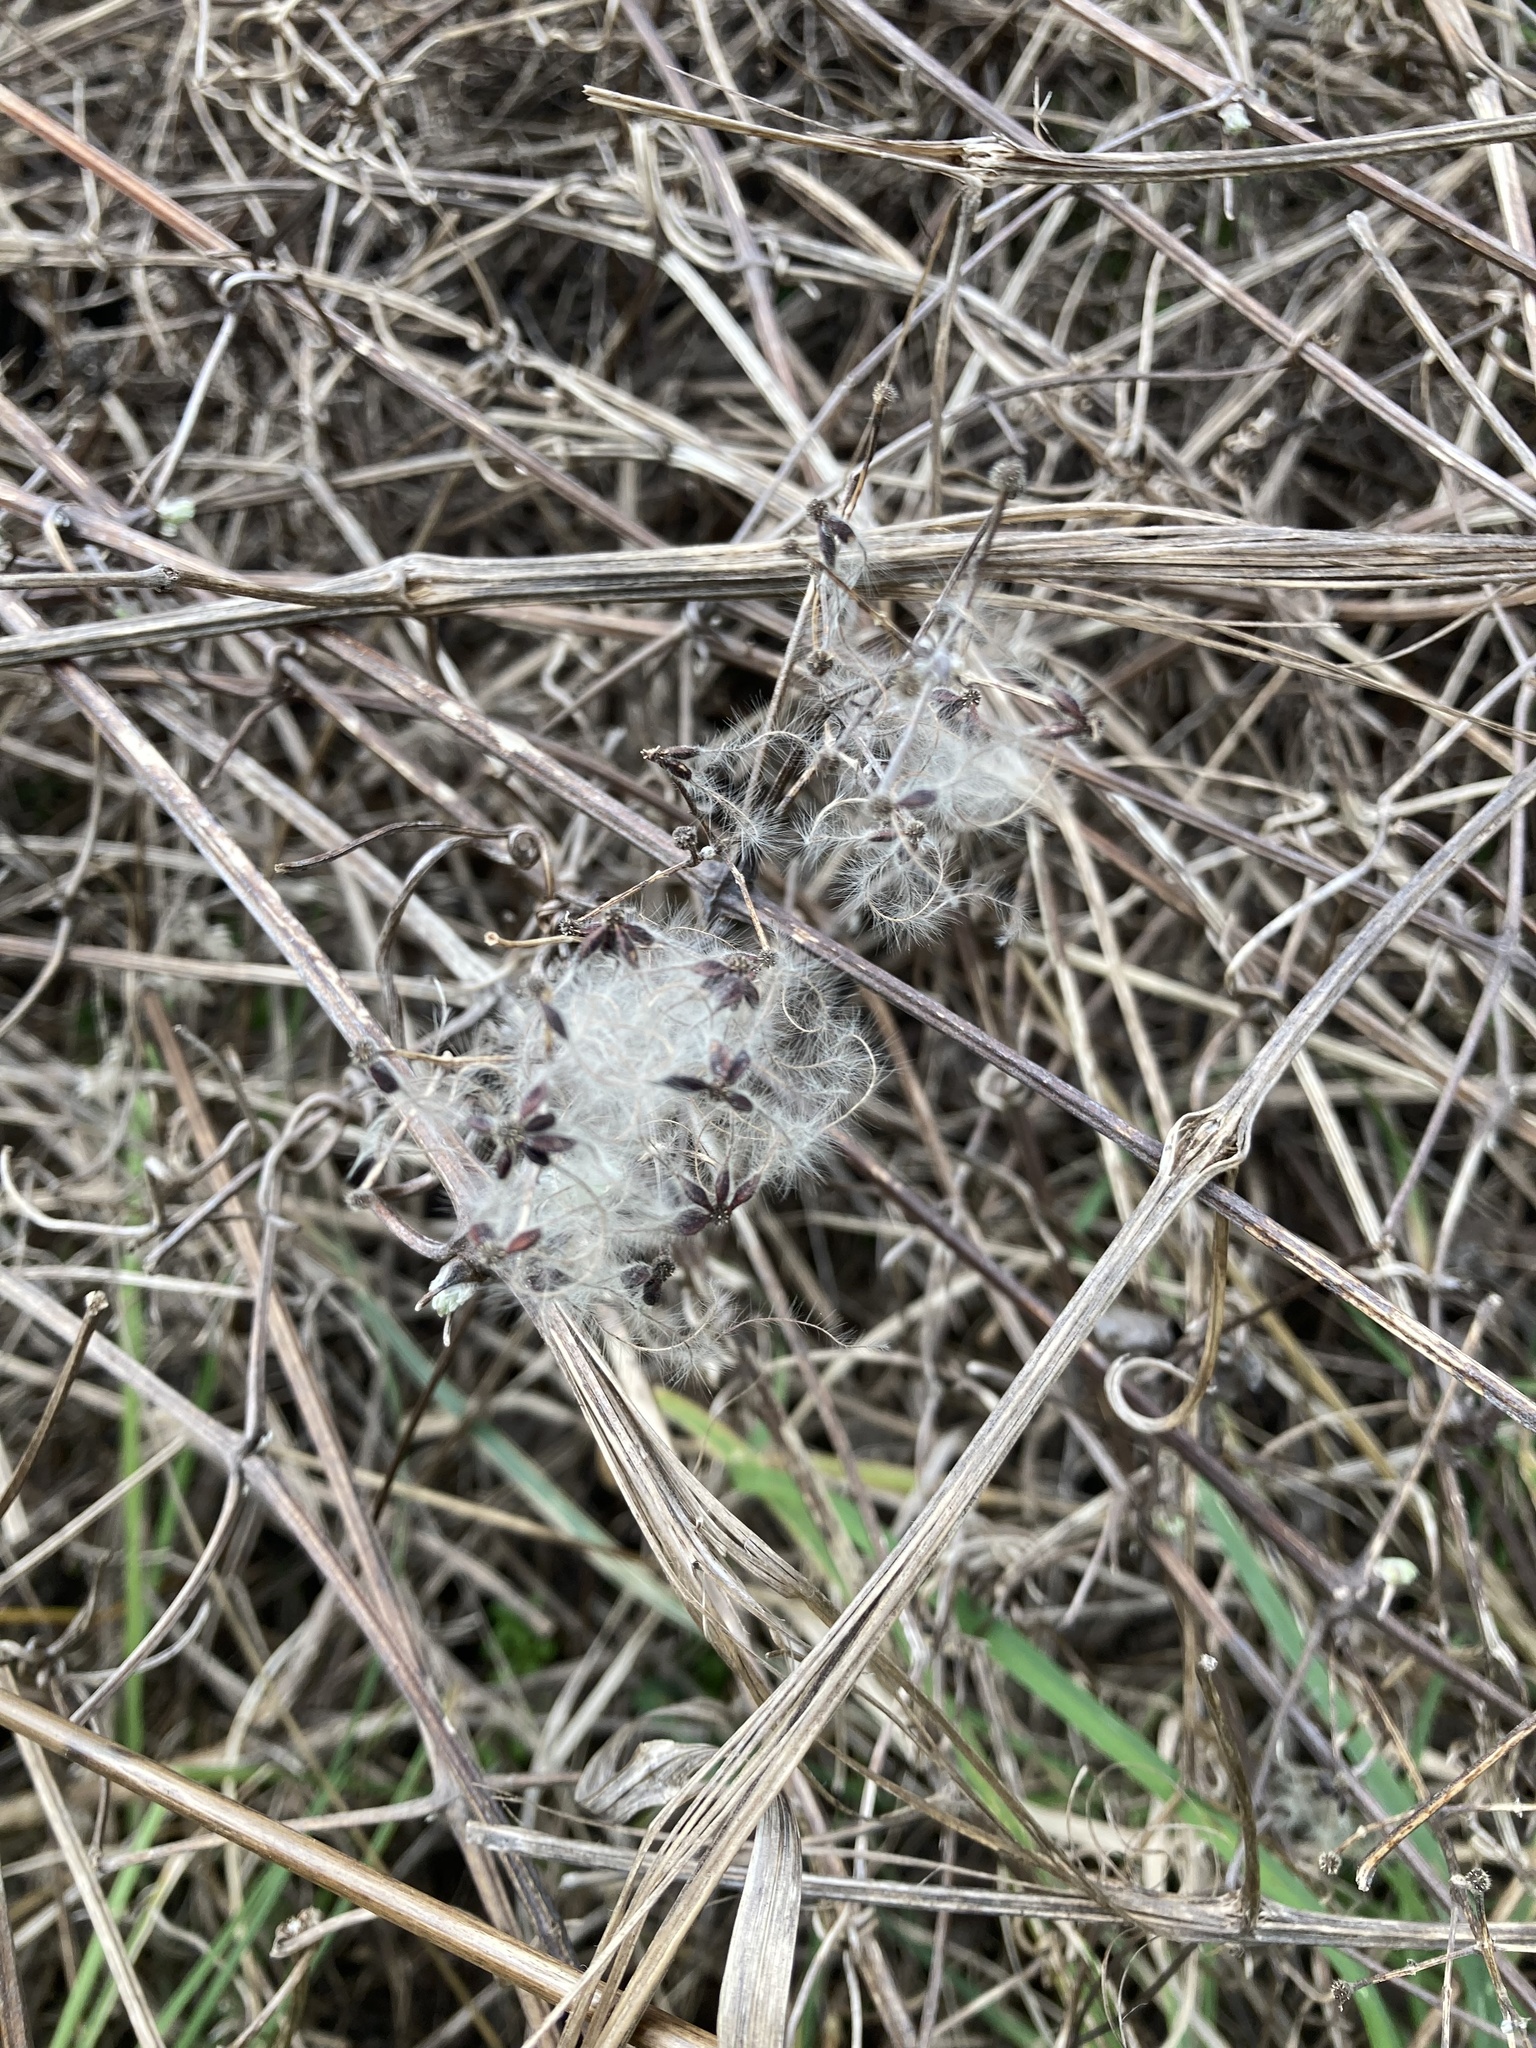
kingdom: Plantae
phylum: Tracheophyta
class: Magnoliopsida
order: Ranunculales
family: Ranunculaceae
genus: Clematis
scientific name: Clematis vitalba
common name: Evergreen clematis
